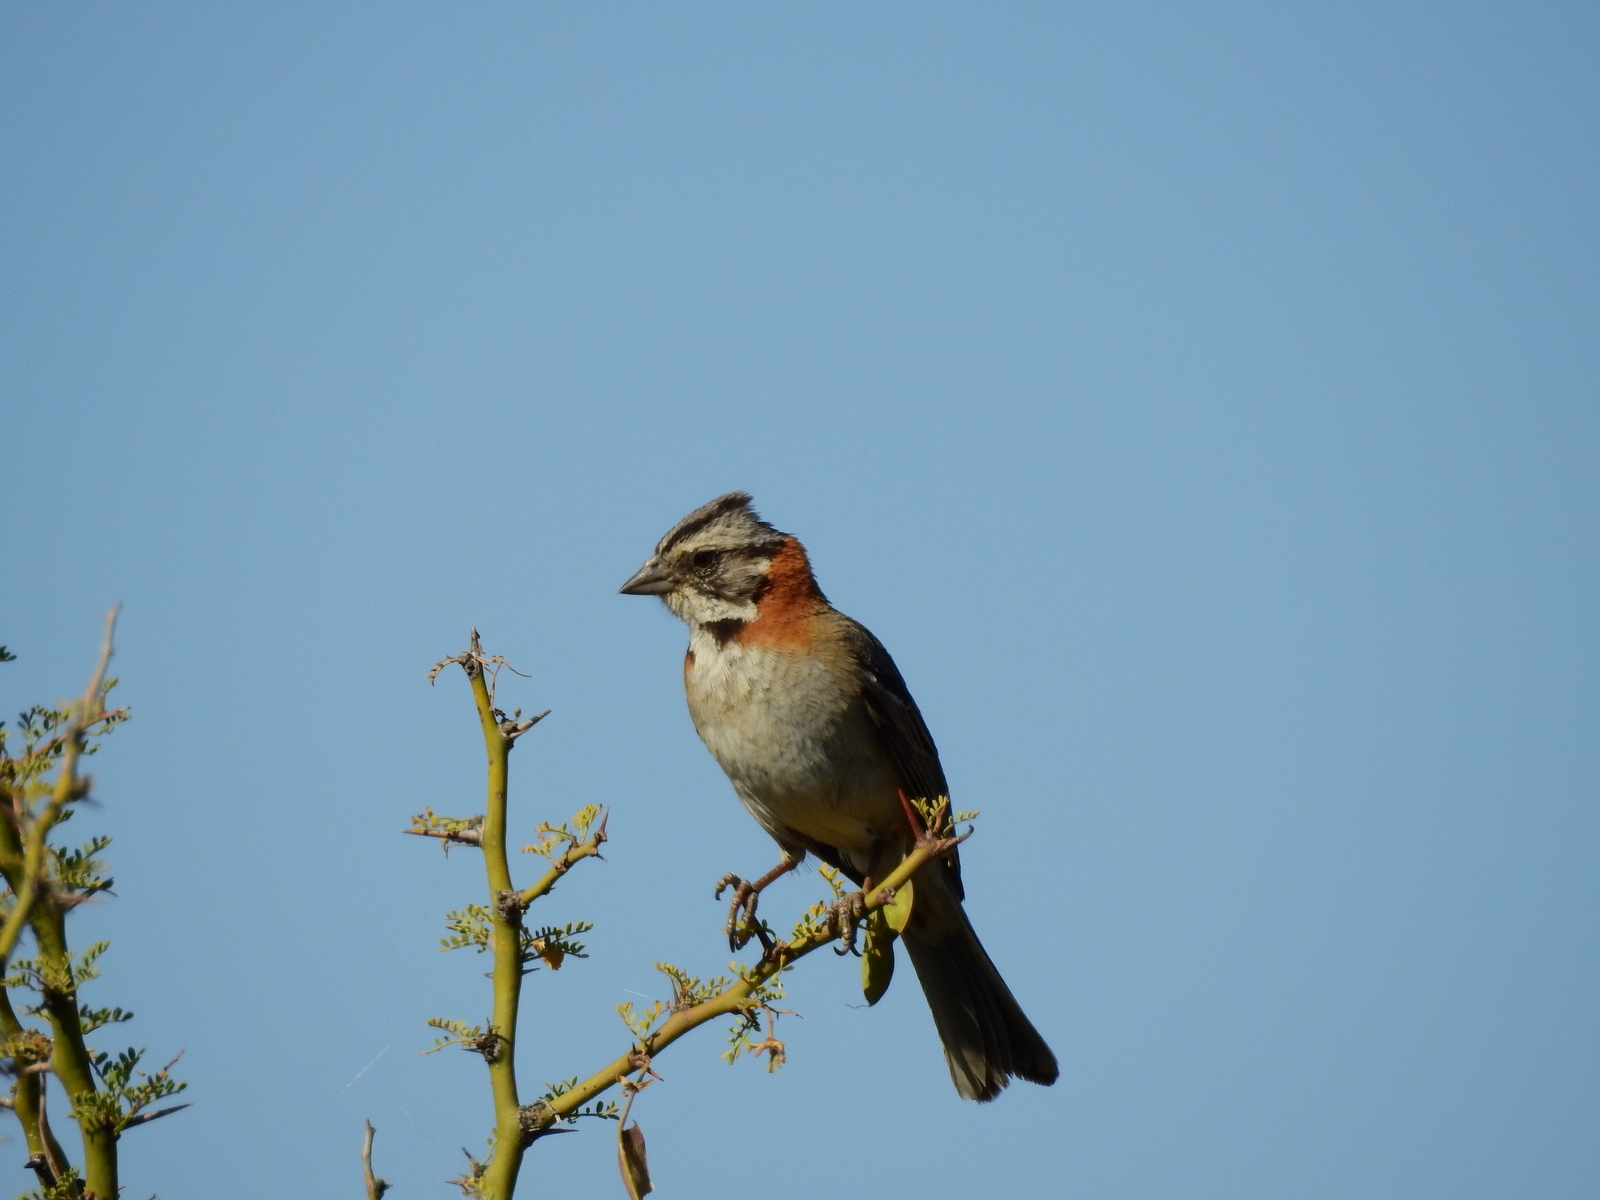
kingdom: Animalia
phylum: Chordata
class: Aves
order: Passeriformes
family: Passerellidae
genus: Zonotrichia
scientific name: Zonotrichia capensis
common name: Rufous-collared sparrow
